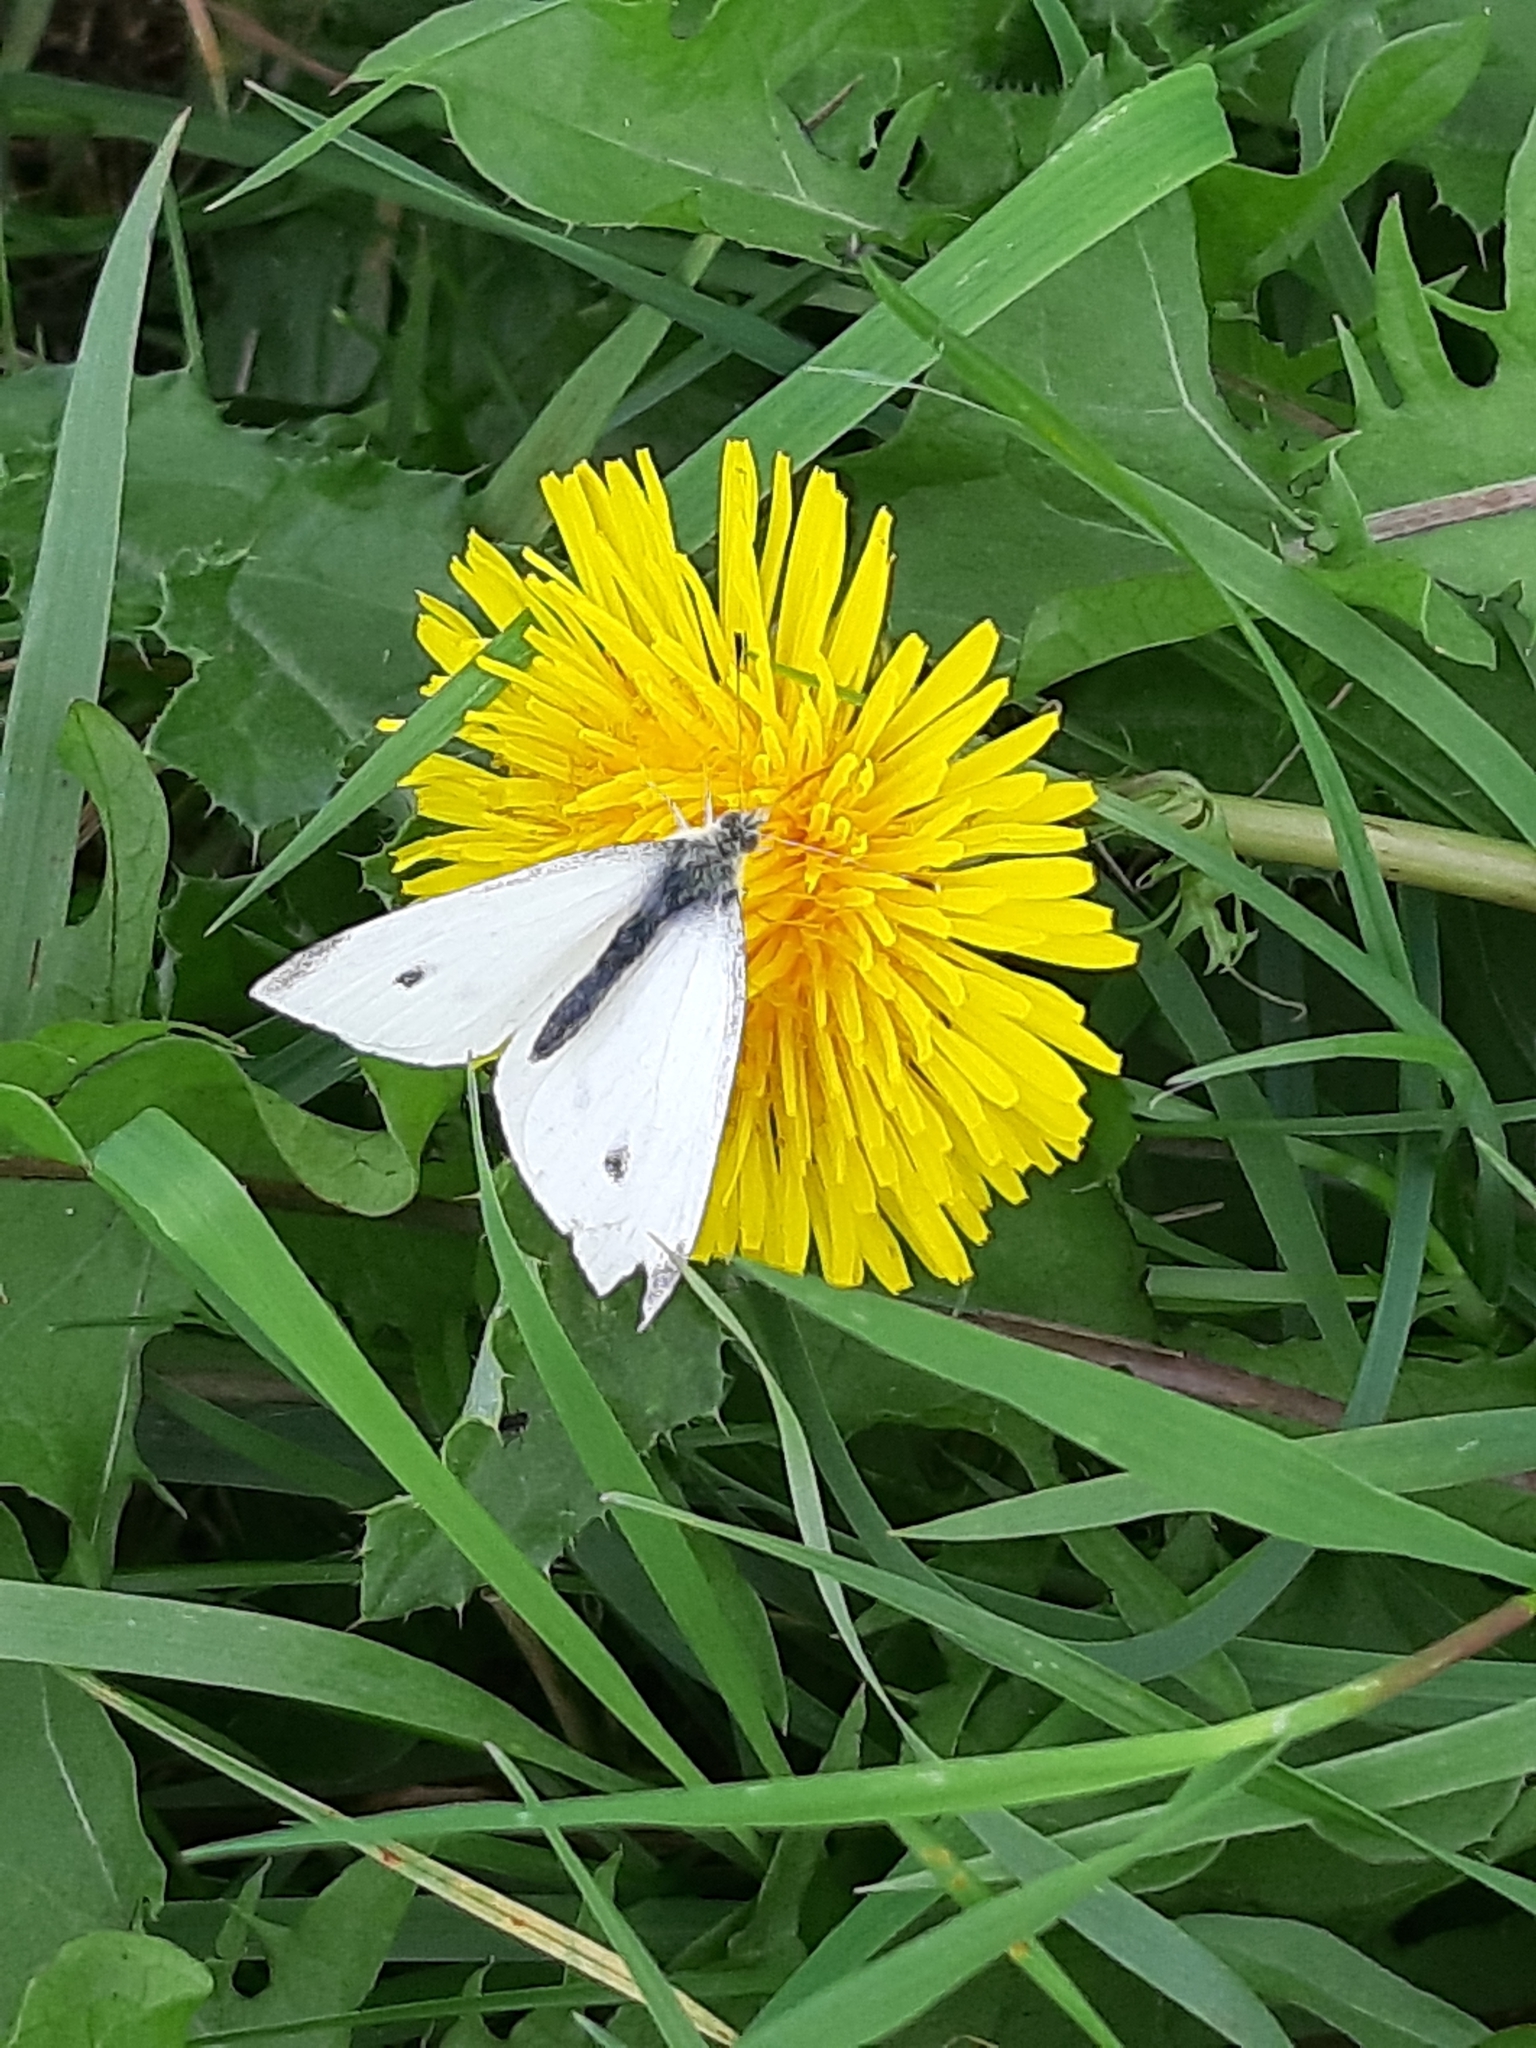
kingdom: Animalia
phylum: Arthropoda
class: Insecta
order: Lepidoptera
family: Pieridae
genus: Pieris
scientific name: Pieris rapae
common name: Small white
